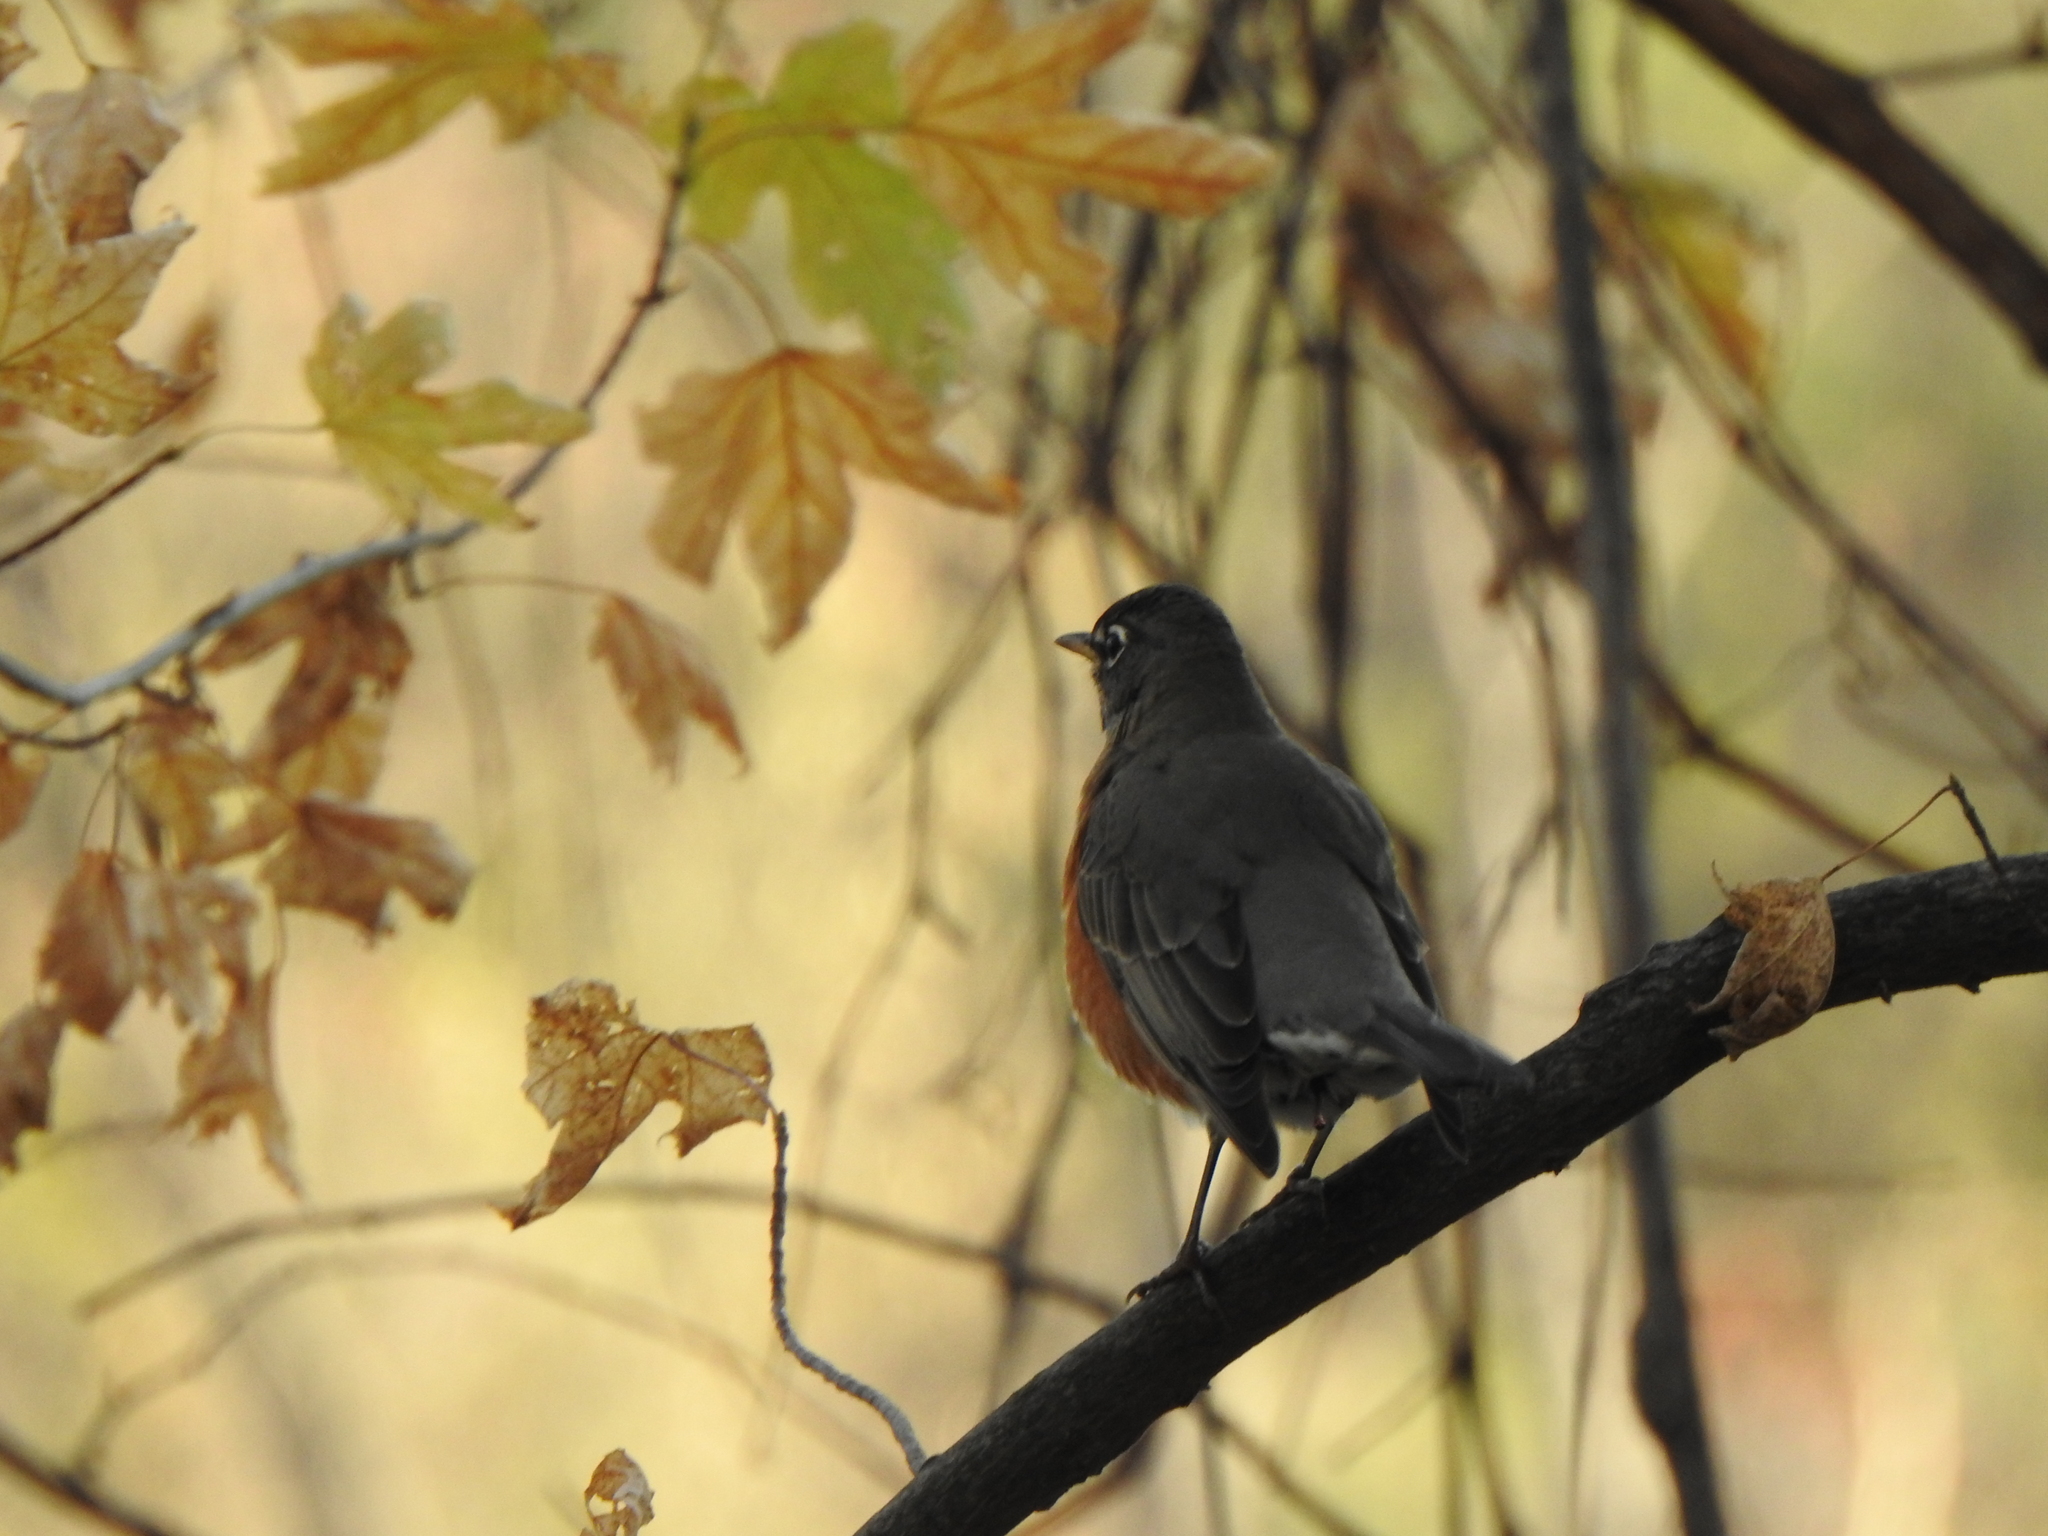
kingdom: Animalia
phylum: Chordata
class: Aves
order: Passeriformes
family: Turdidae
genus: Turdus
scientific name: Turdus migratorius
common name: American robin
